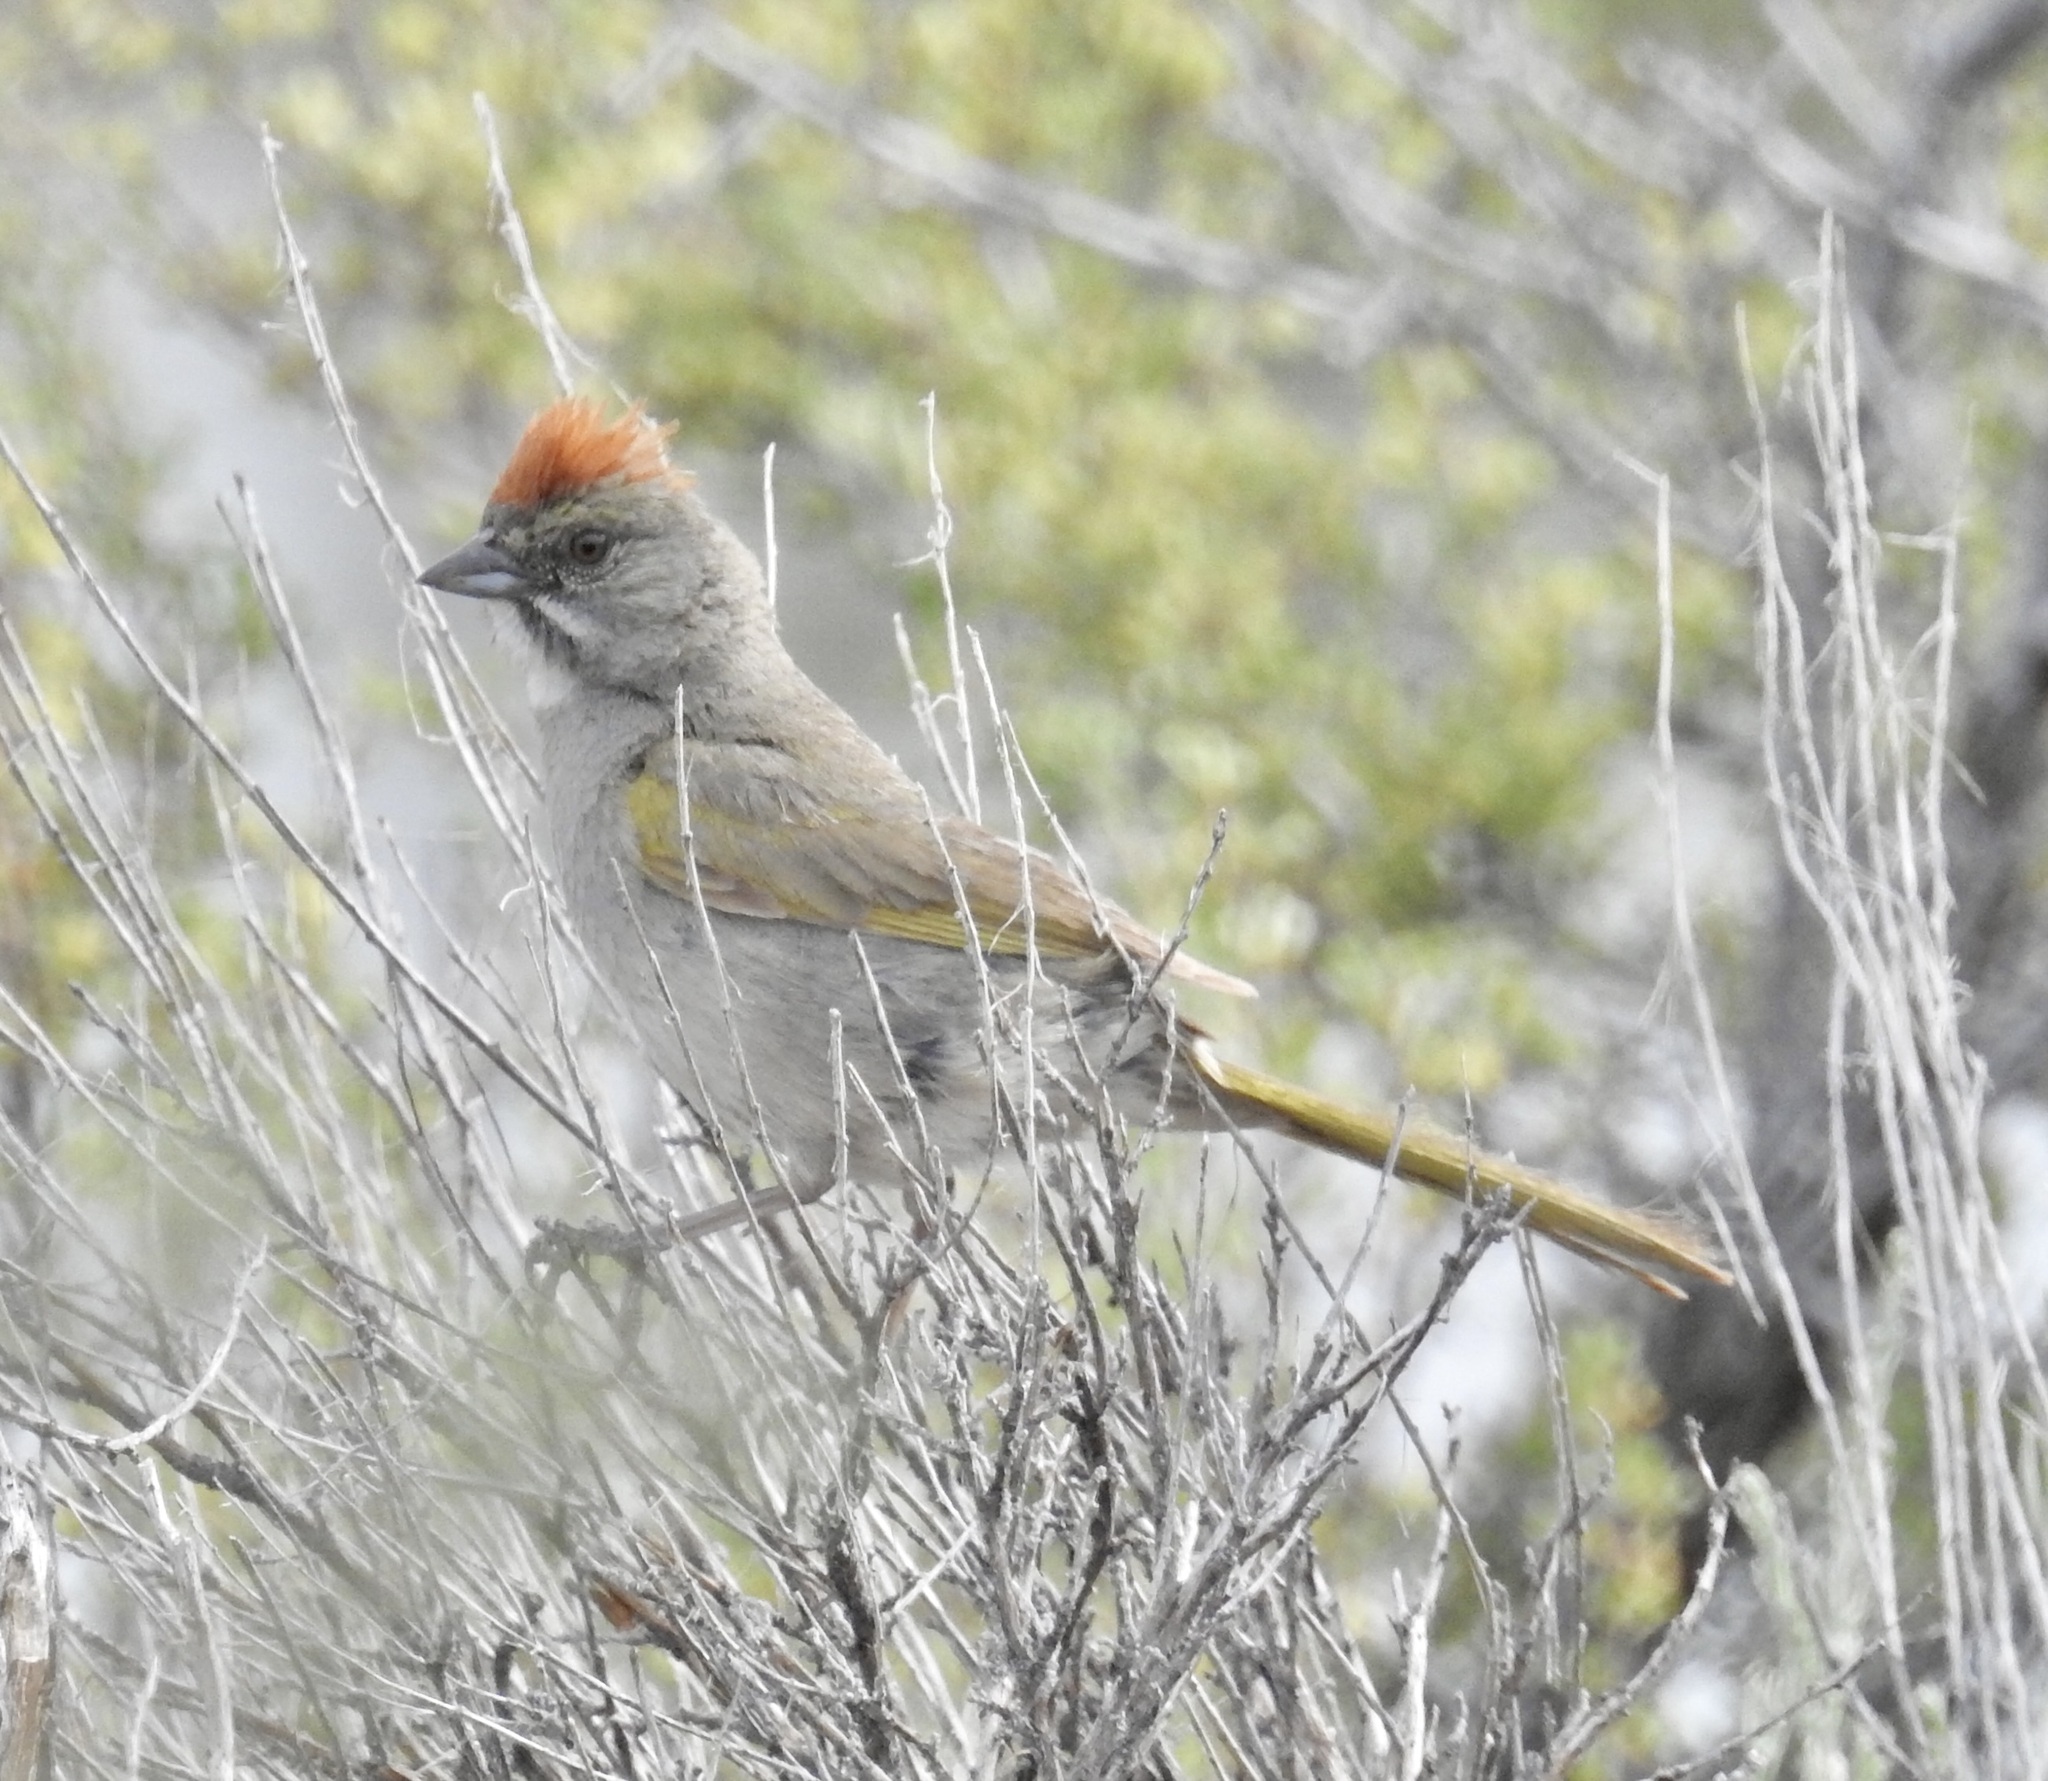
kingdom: Animalia
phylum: Chordata
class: Aves
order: Passeriformes
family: Passerellidae
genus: Pipilo
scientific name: Pipilo chlorurus
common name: Green-tailed towhee
